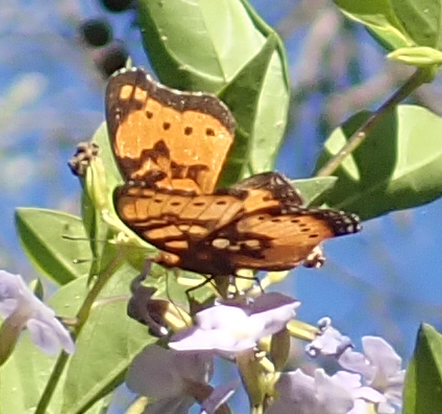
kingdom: Animalia
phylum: Arthropoda
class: Insecta
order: Lepidoptera
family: Nymphalidae
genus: Junonia
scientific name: Junonia antilope
